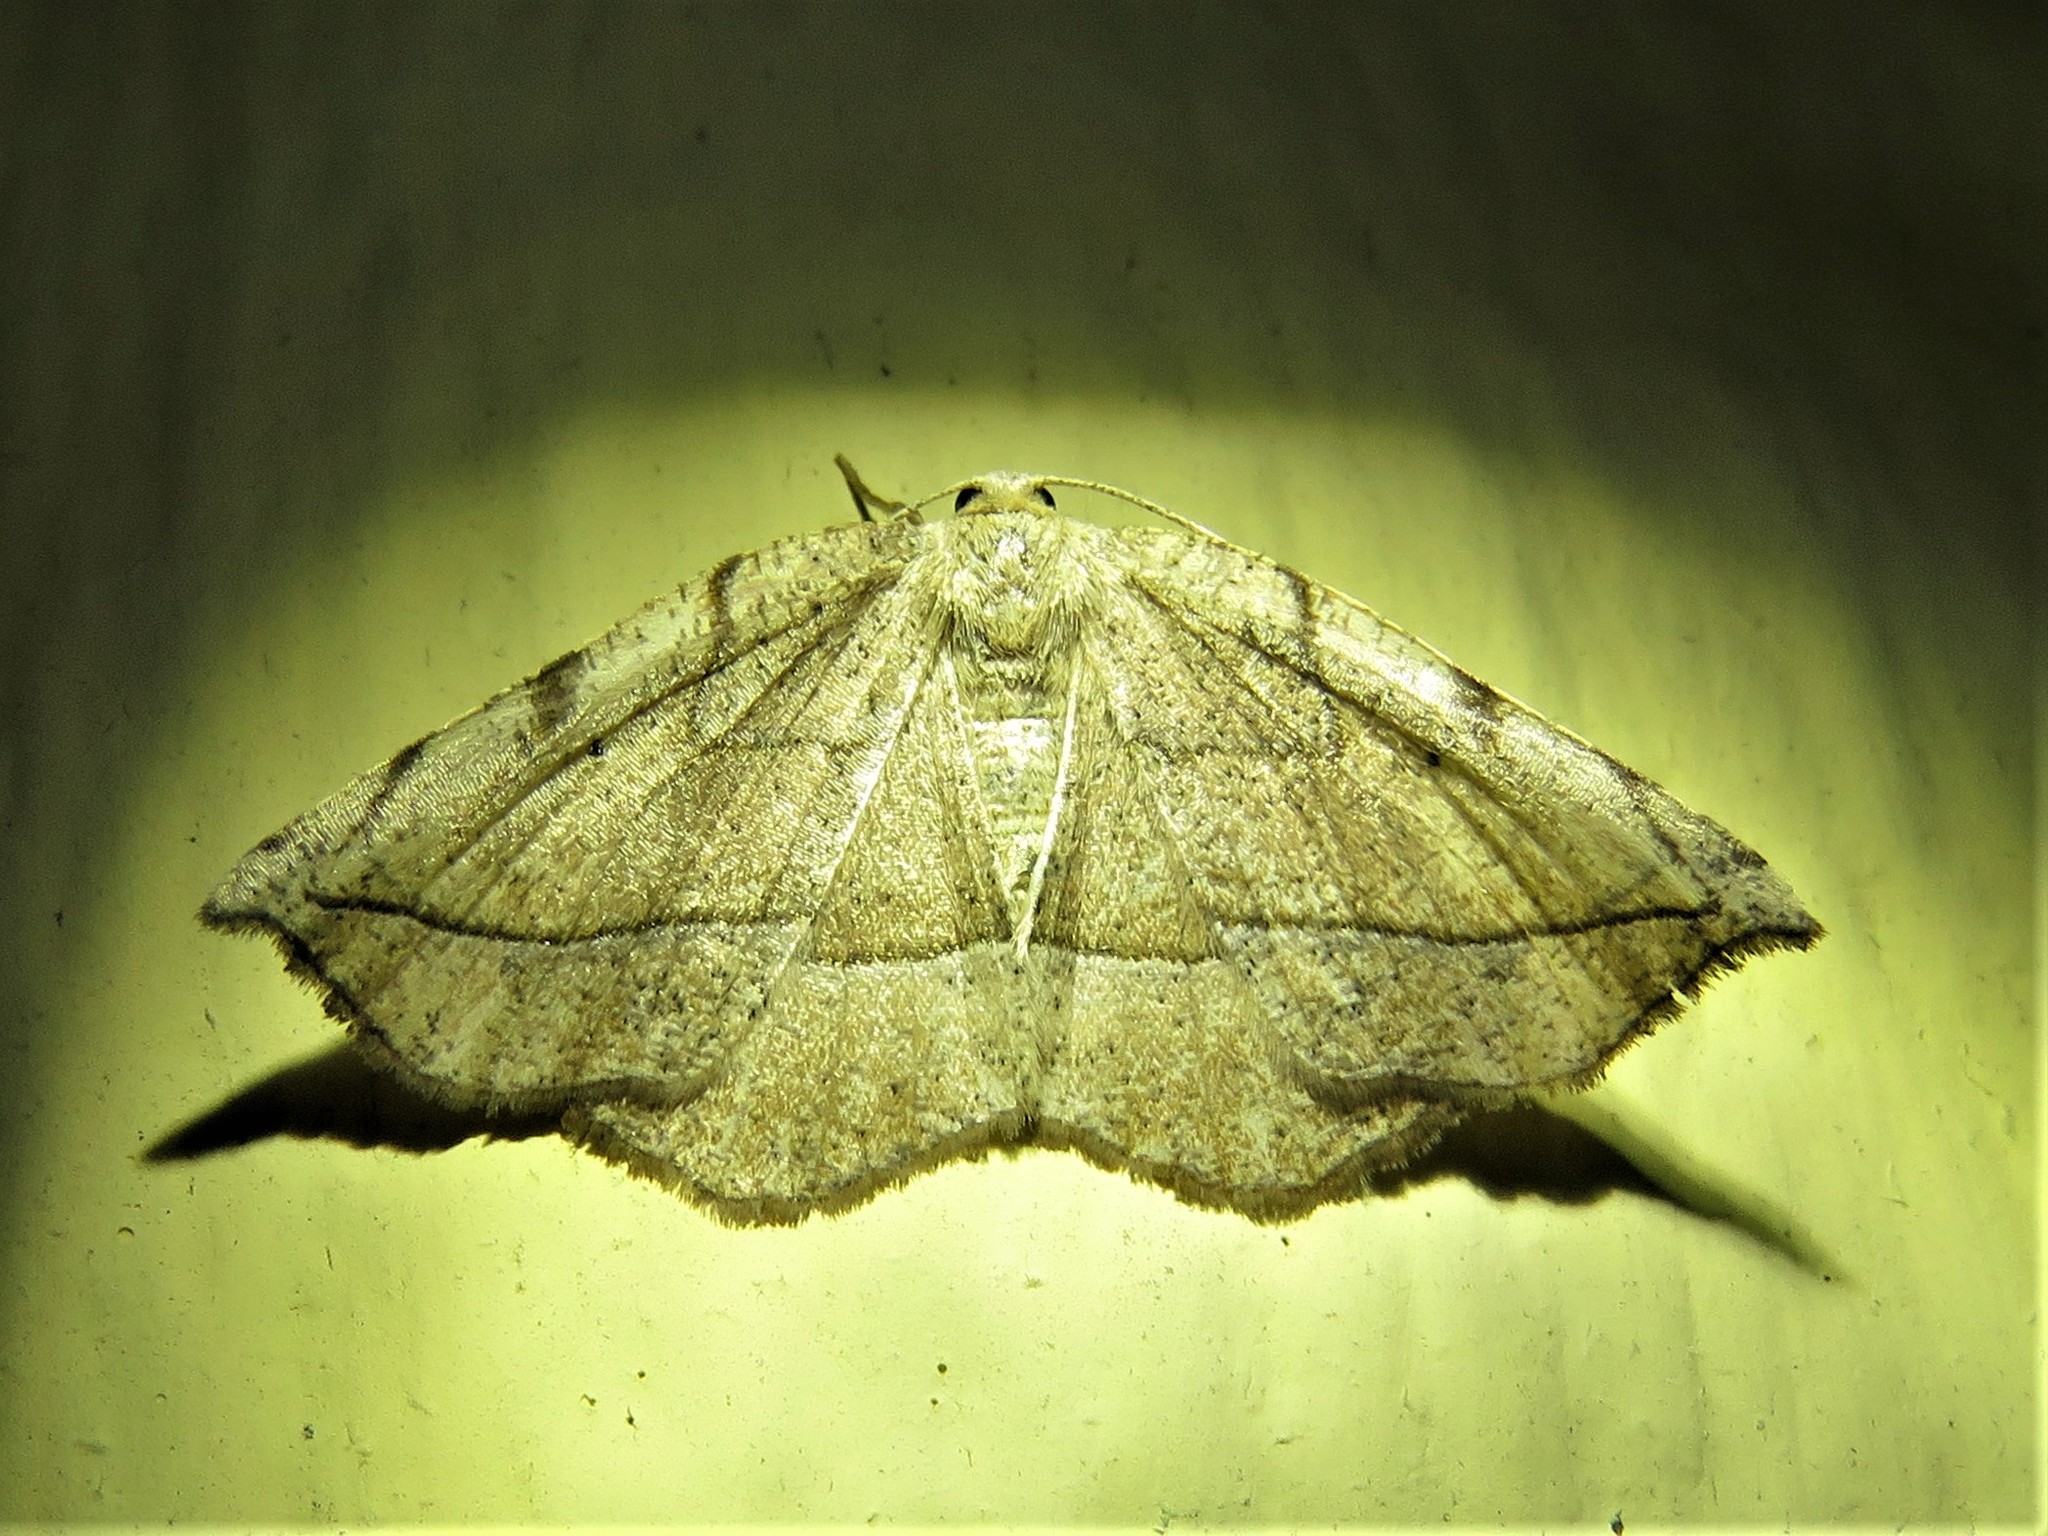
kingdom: Animalia
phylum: Arthropoda
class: Insecta
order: Lepidoptera
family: Geometridae
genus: Eusarca
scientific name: Eusarca packardaria
